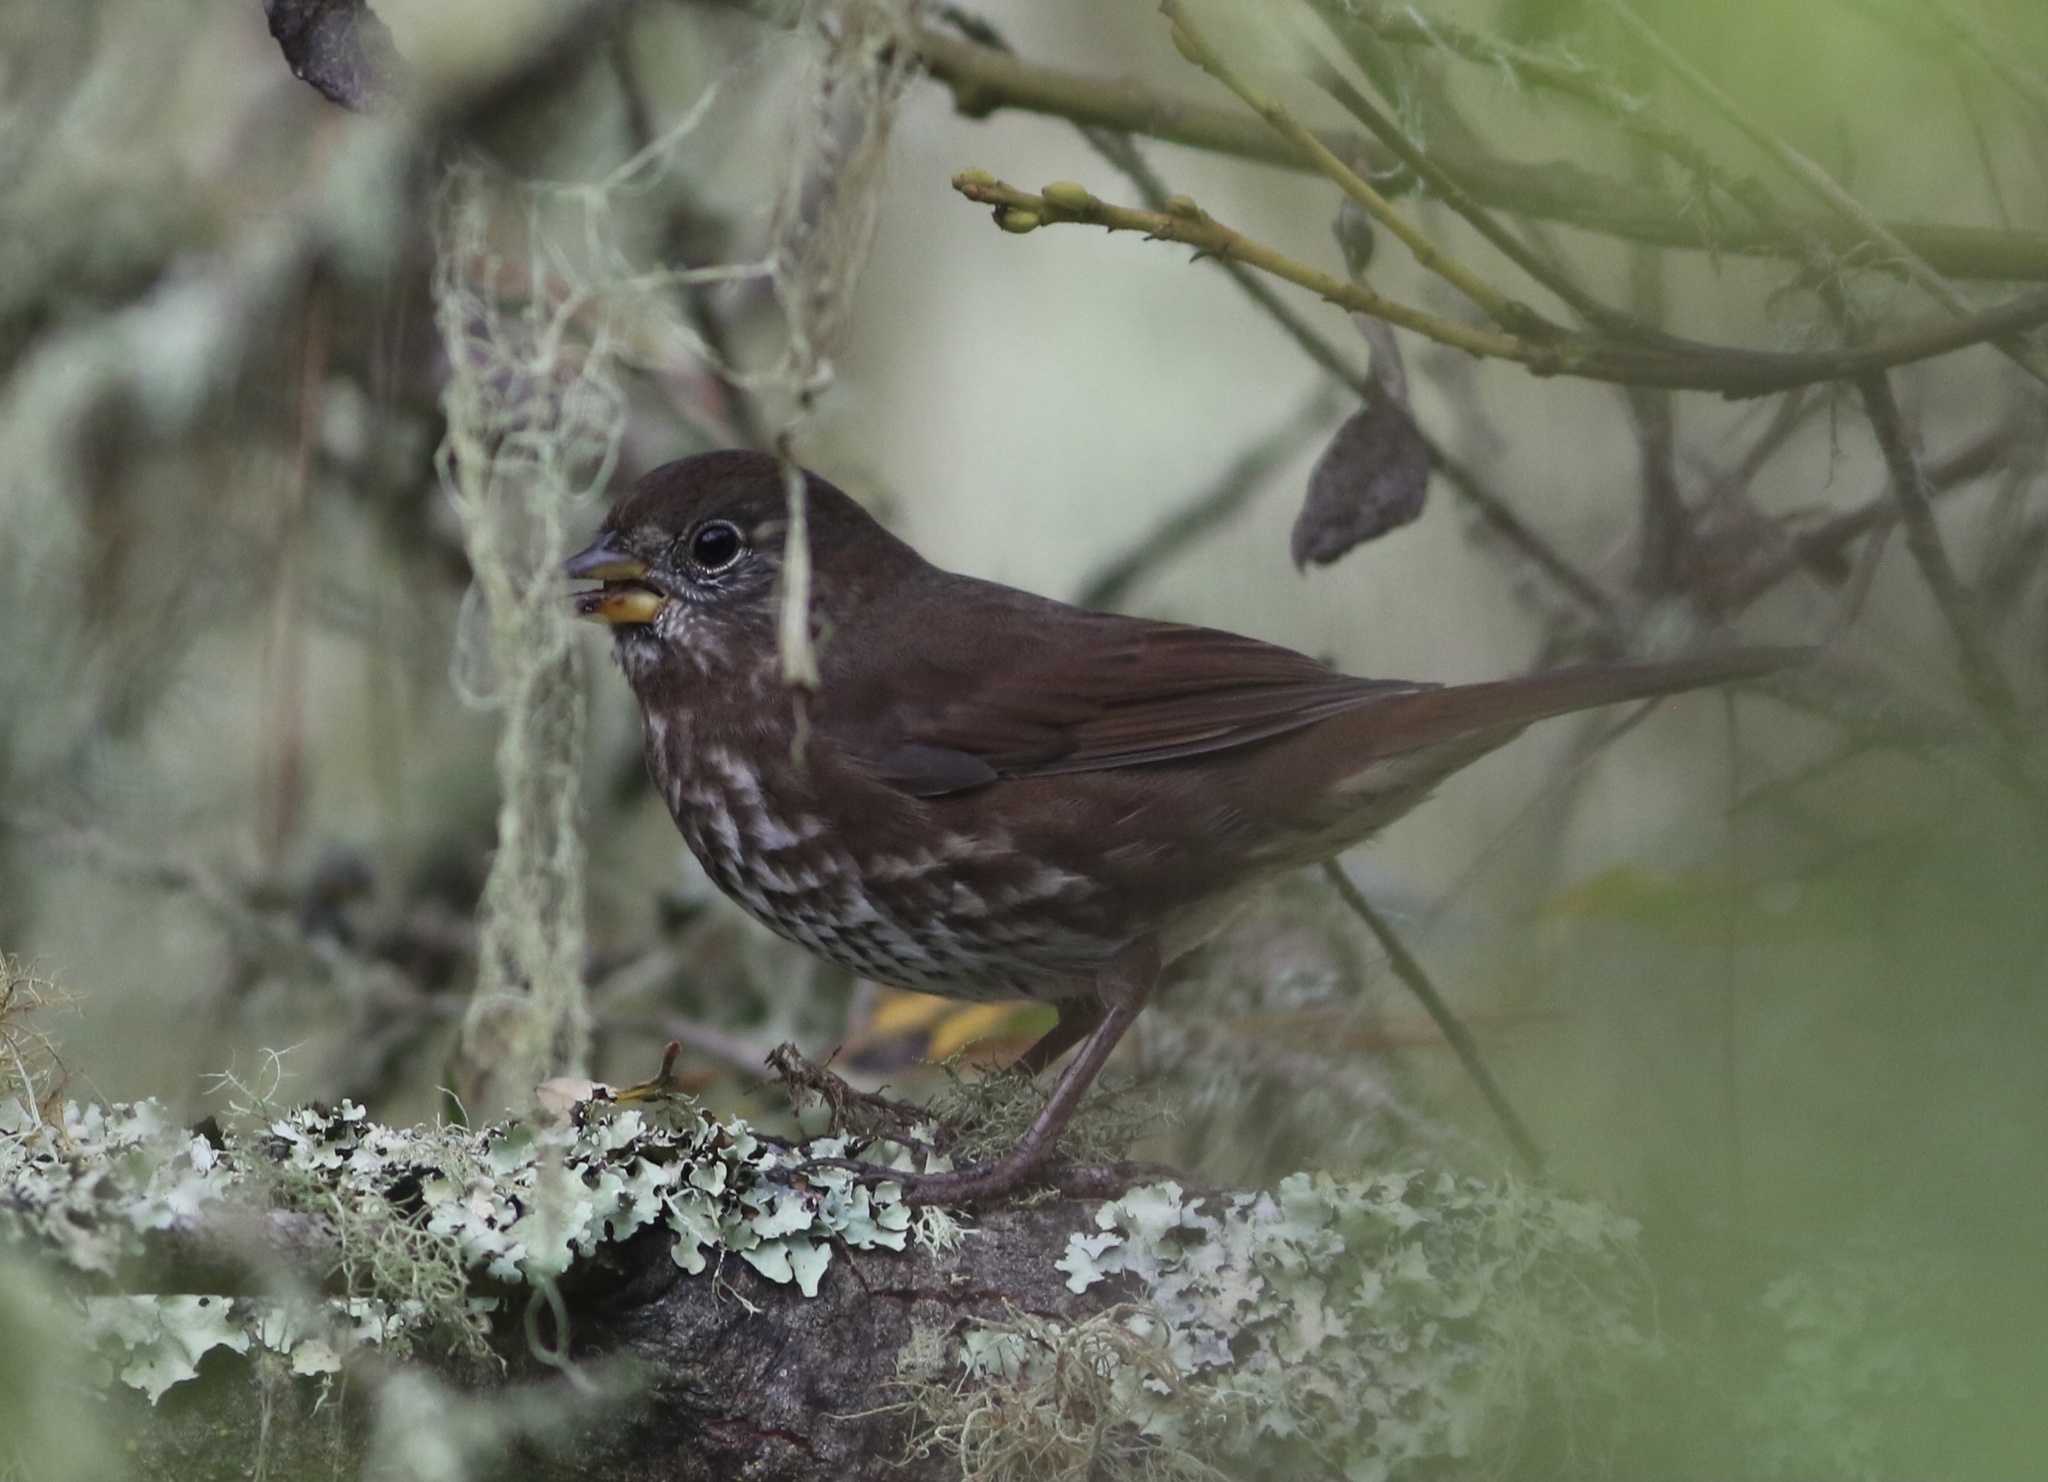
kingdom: Animalia
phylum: Chordata
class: Aves
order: Passeriformes
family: Passerellidae
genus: Passerella
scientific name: Passerella iliaca
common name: Fox sparrow
